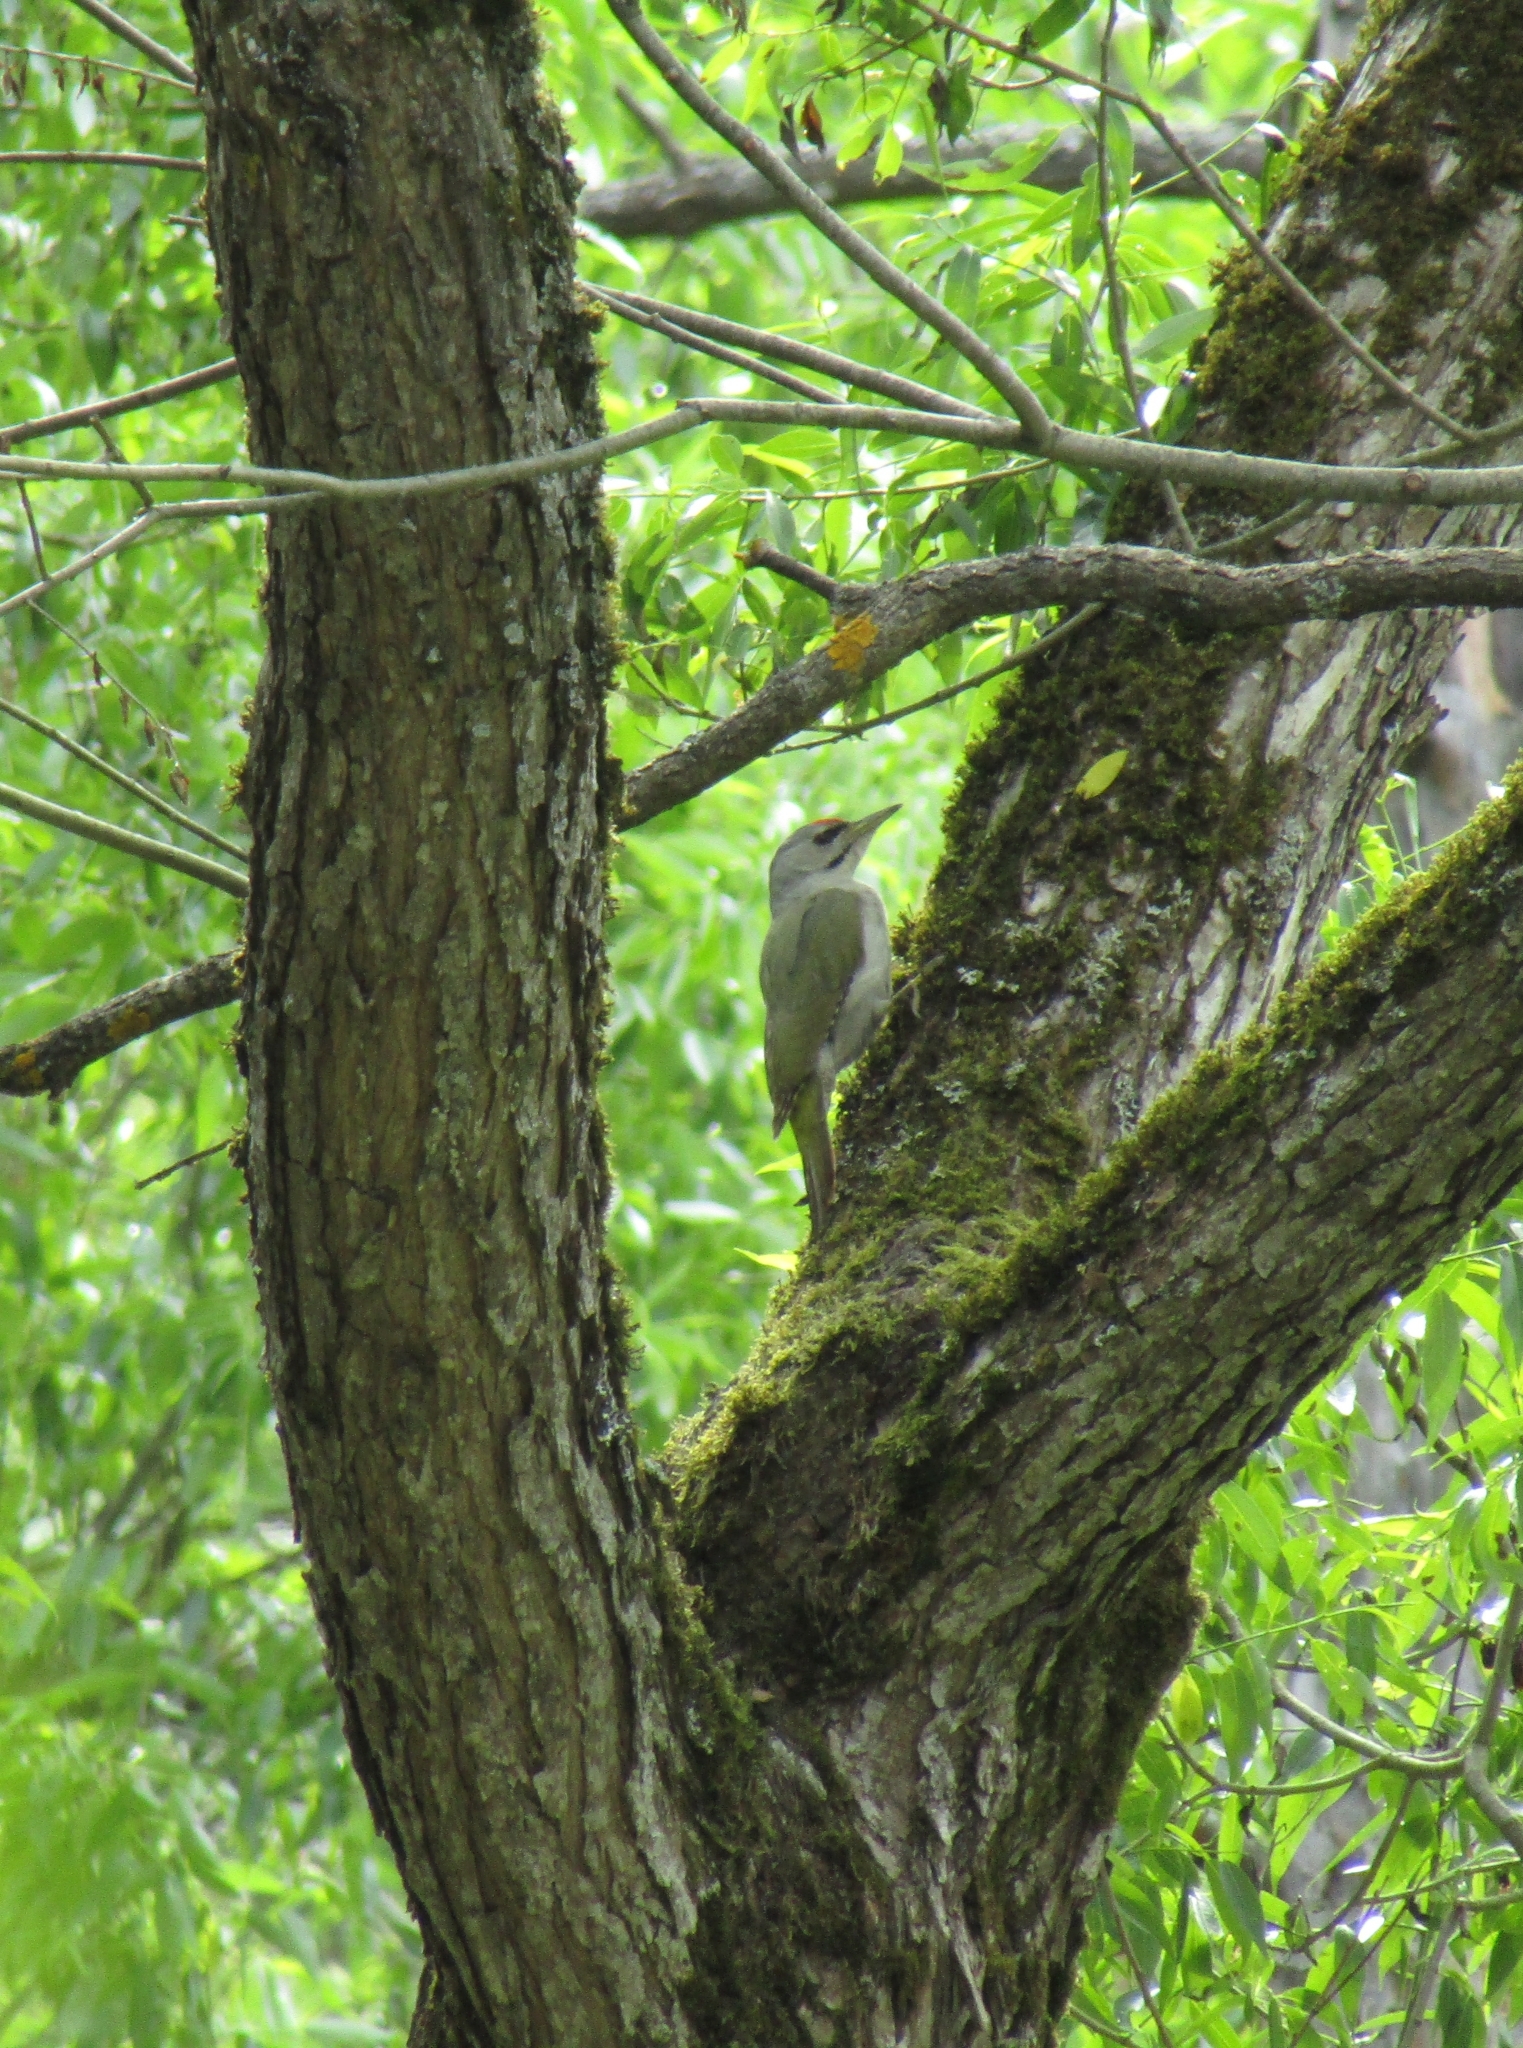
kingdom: Animalia
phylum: Chordata
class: Aves
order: Piciformes
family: Picidae
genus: Picus
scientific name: Picus canus
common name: Grey-headed woodpecker
